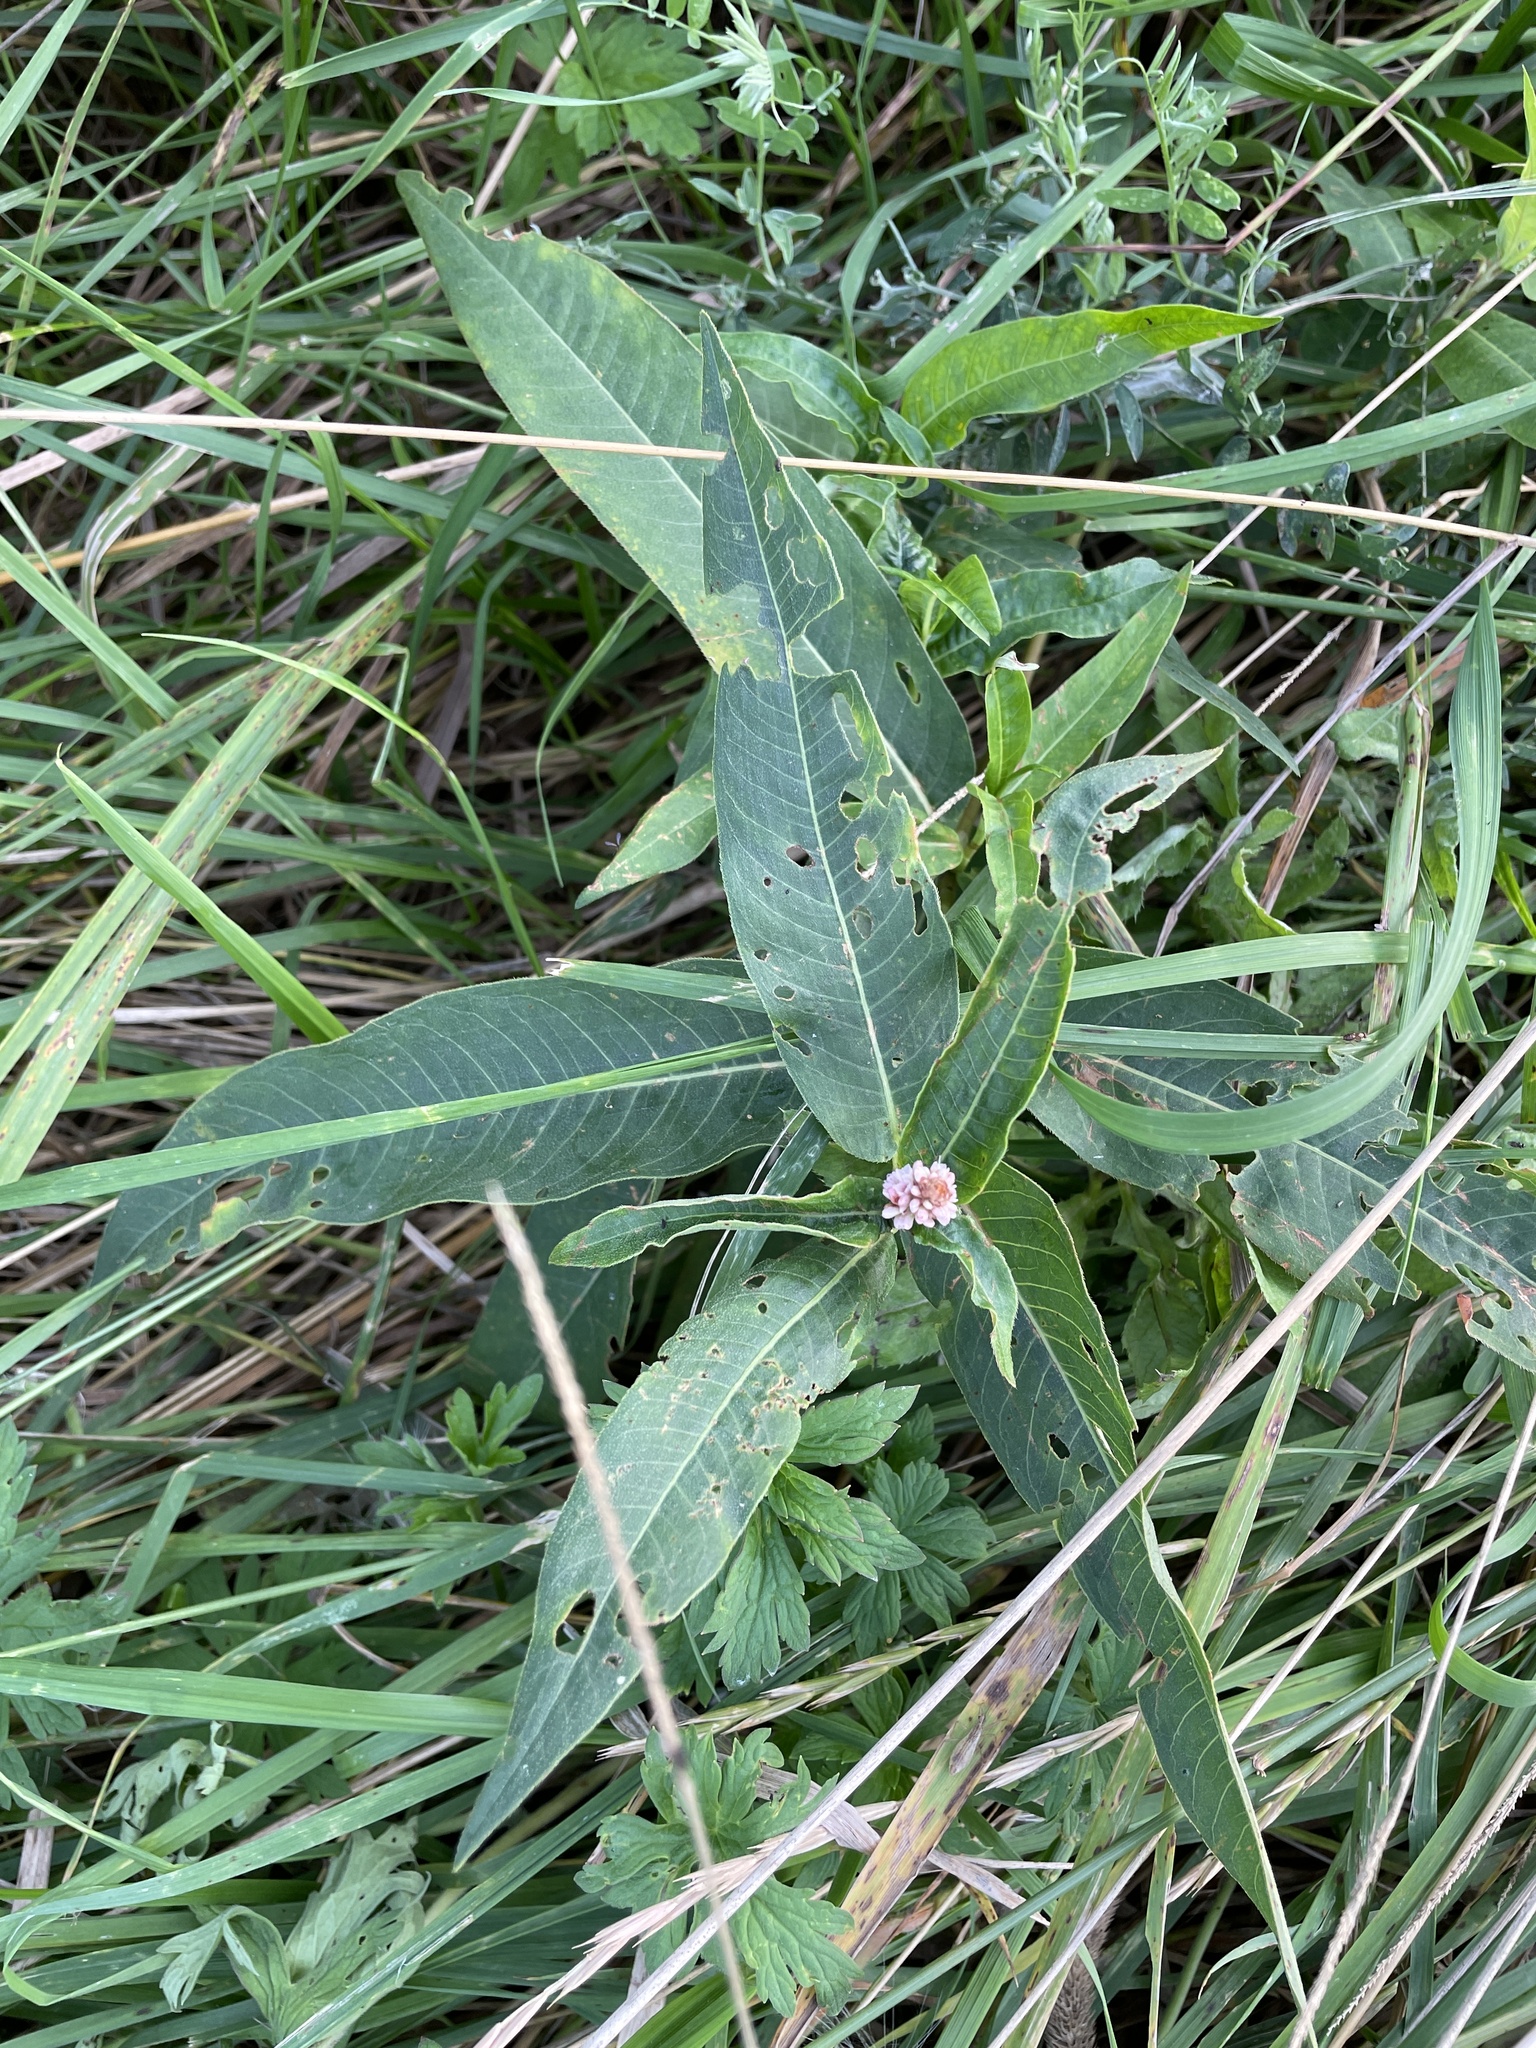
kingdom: Plantae
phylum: Tracheophyta
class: Magnoliopsida
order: Caryophyllales
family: Polygonaceae
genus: Persicaria
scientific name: Persicaria amphibia
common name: Amphibious bistort
